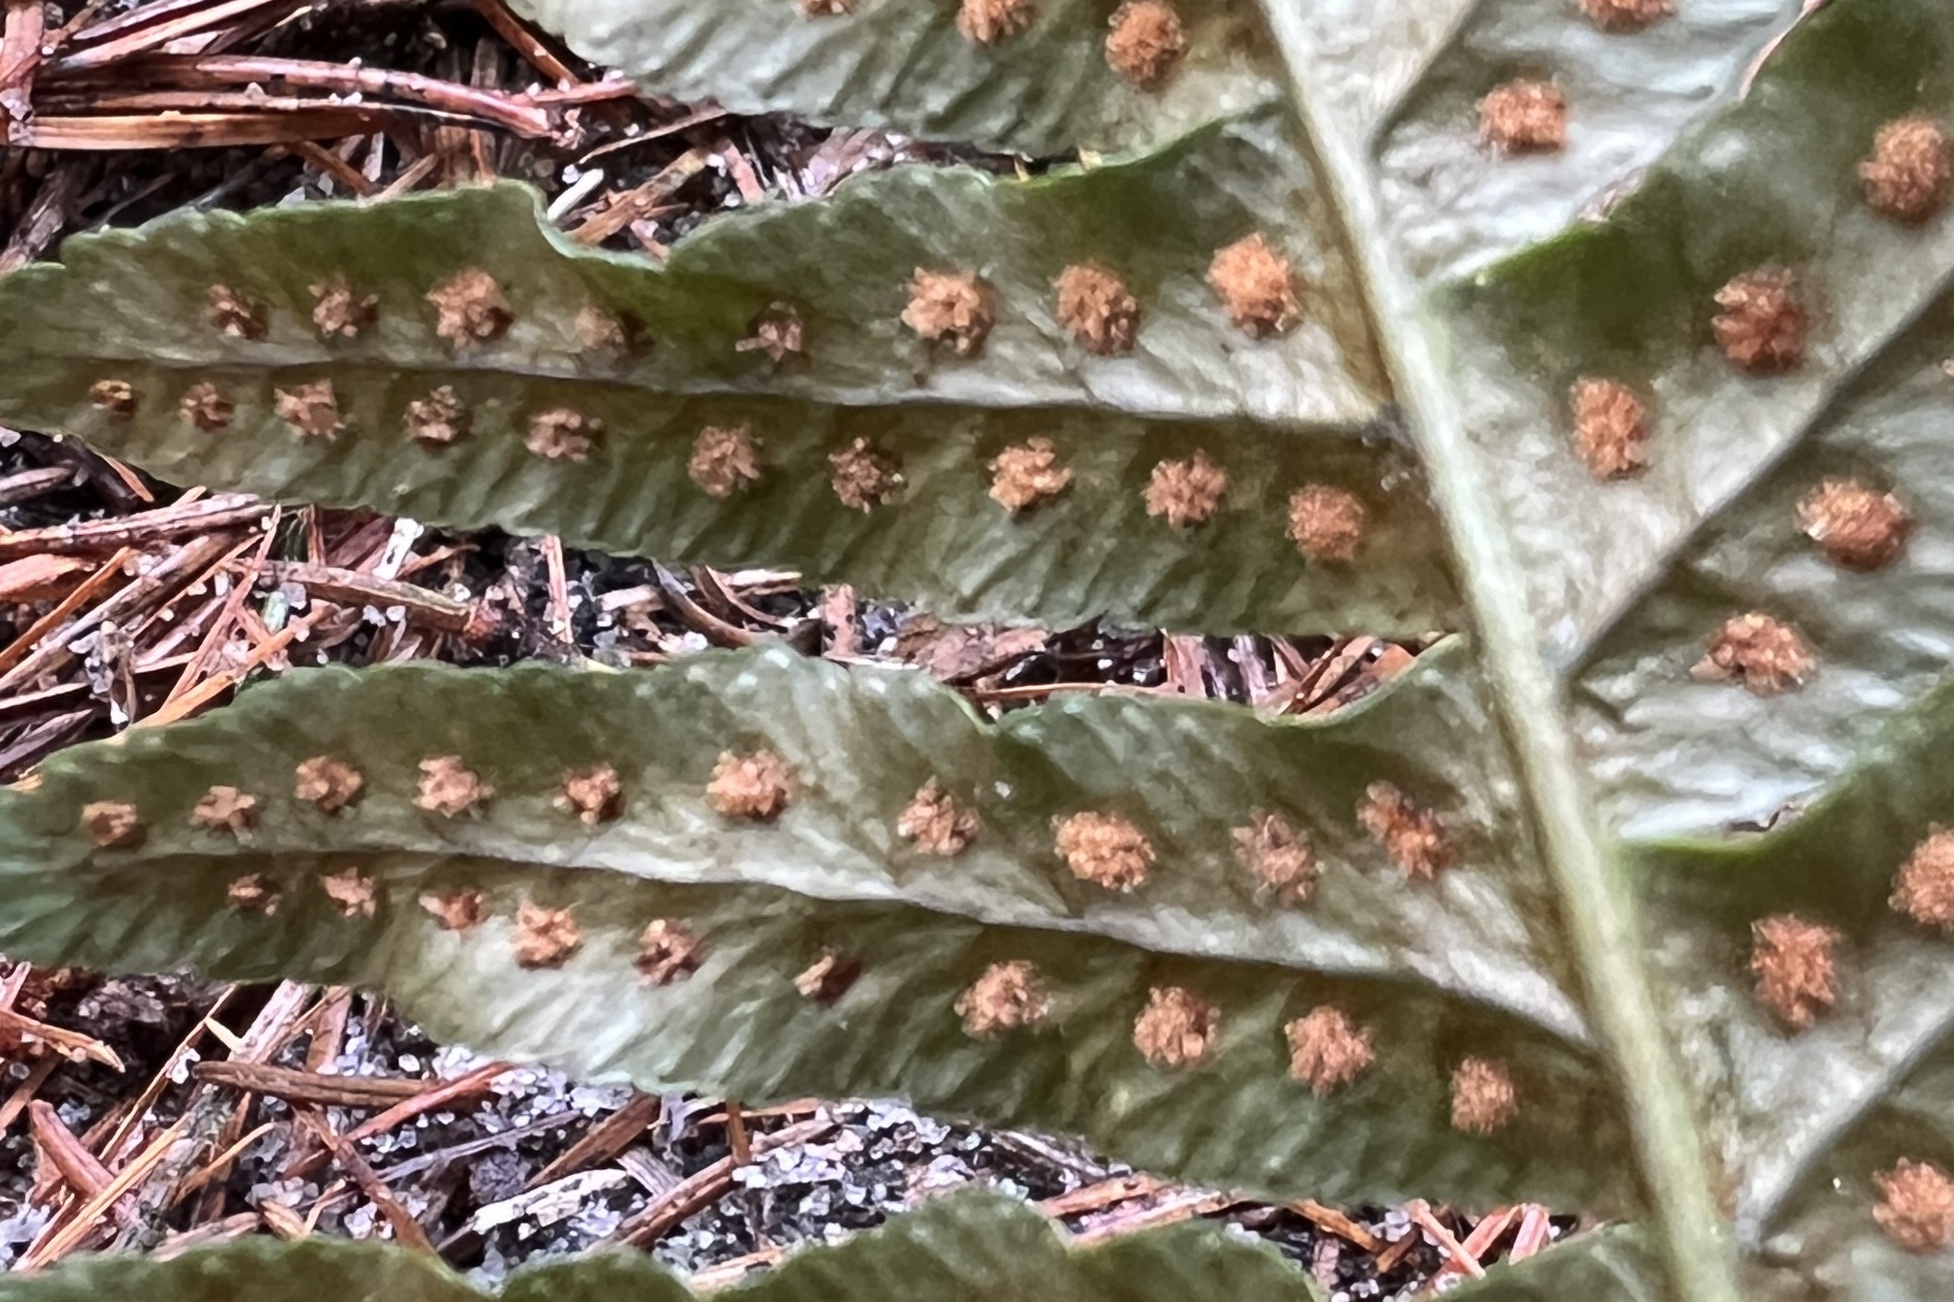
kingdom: Plantae
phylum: Tracheophyta
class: Polypodiopsida
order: Polypodiales
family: Polypodiaceae
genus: Polypodium
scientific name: Polypodium vulgare
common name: Common polypody
